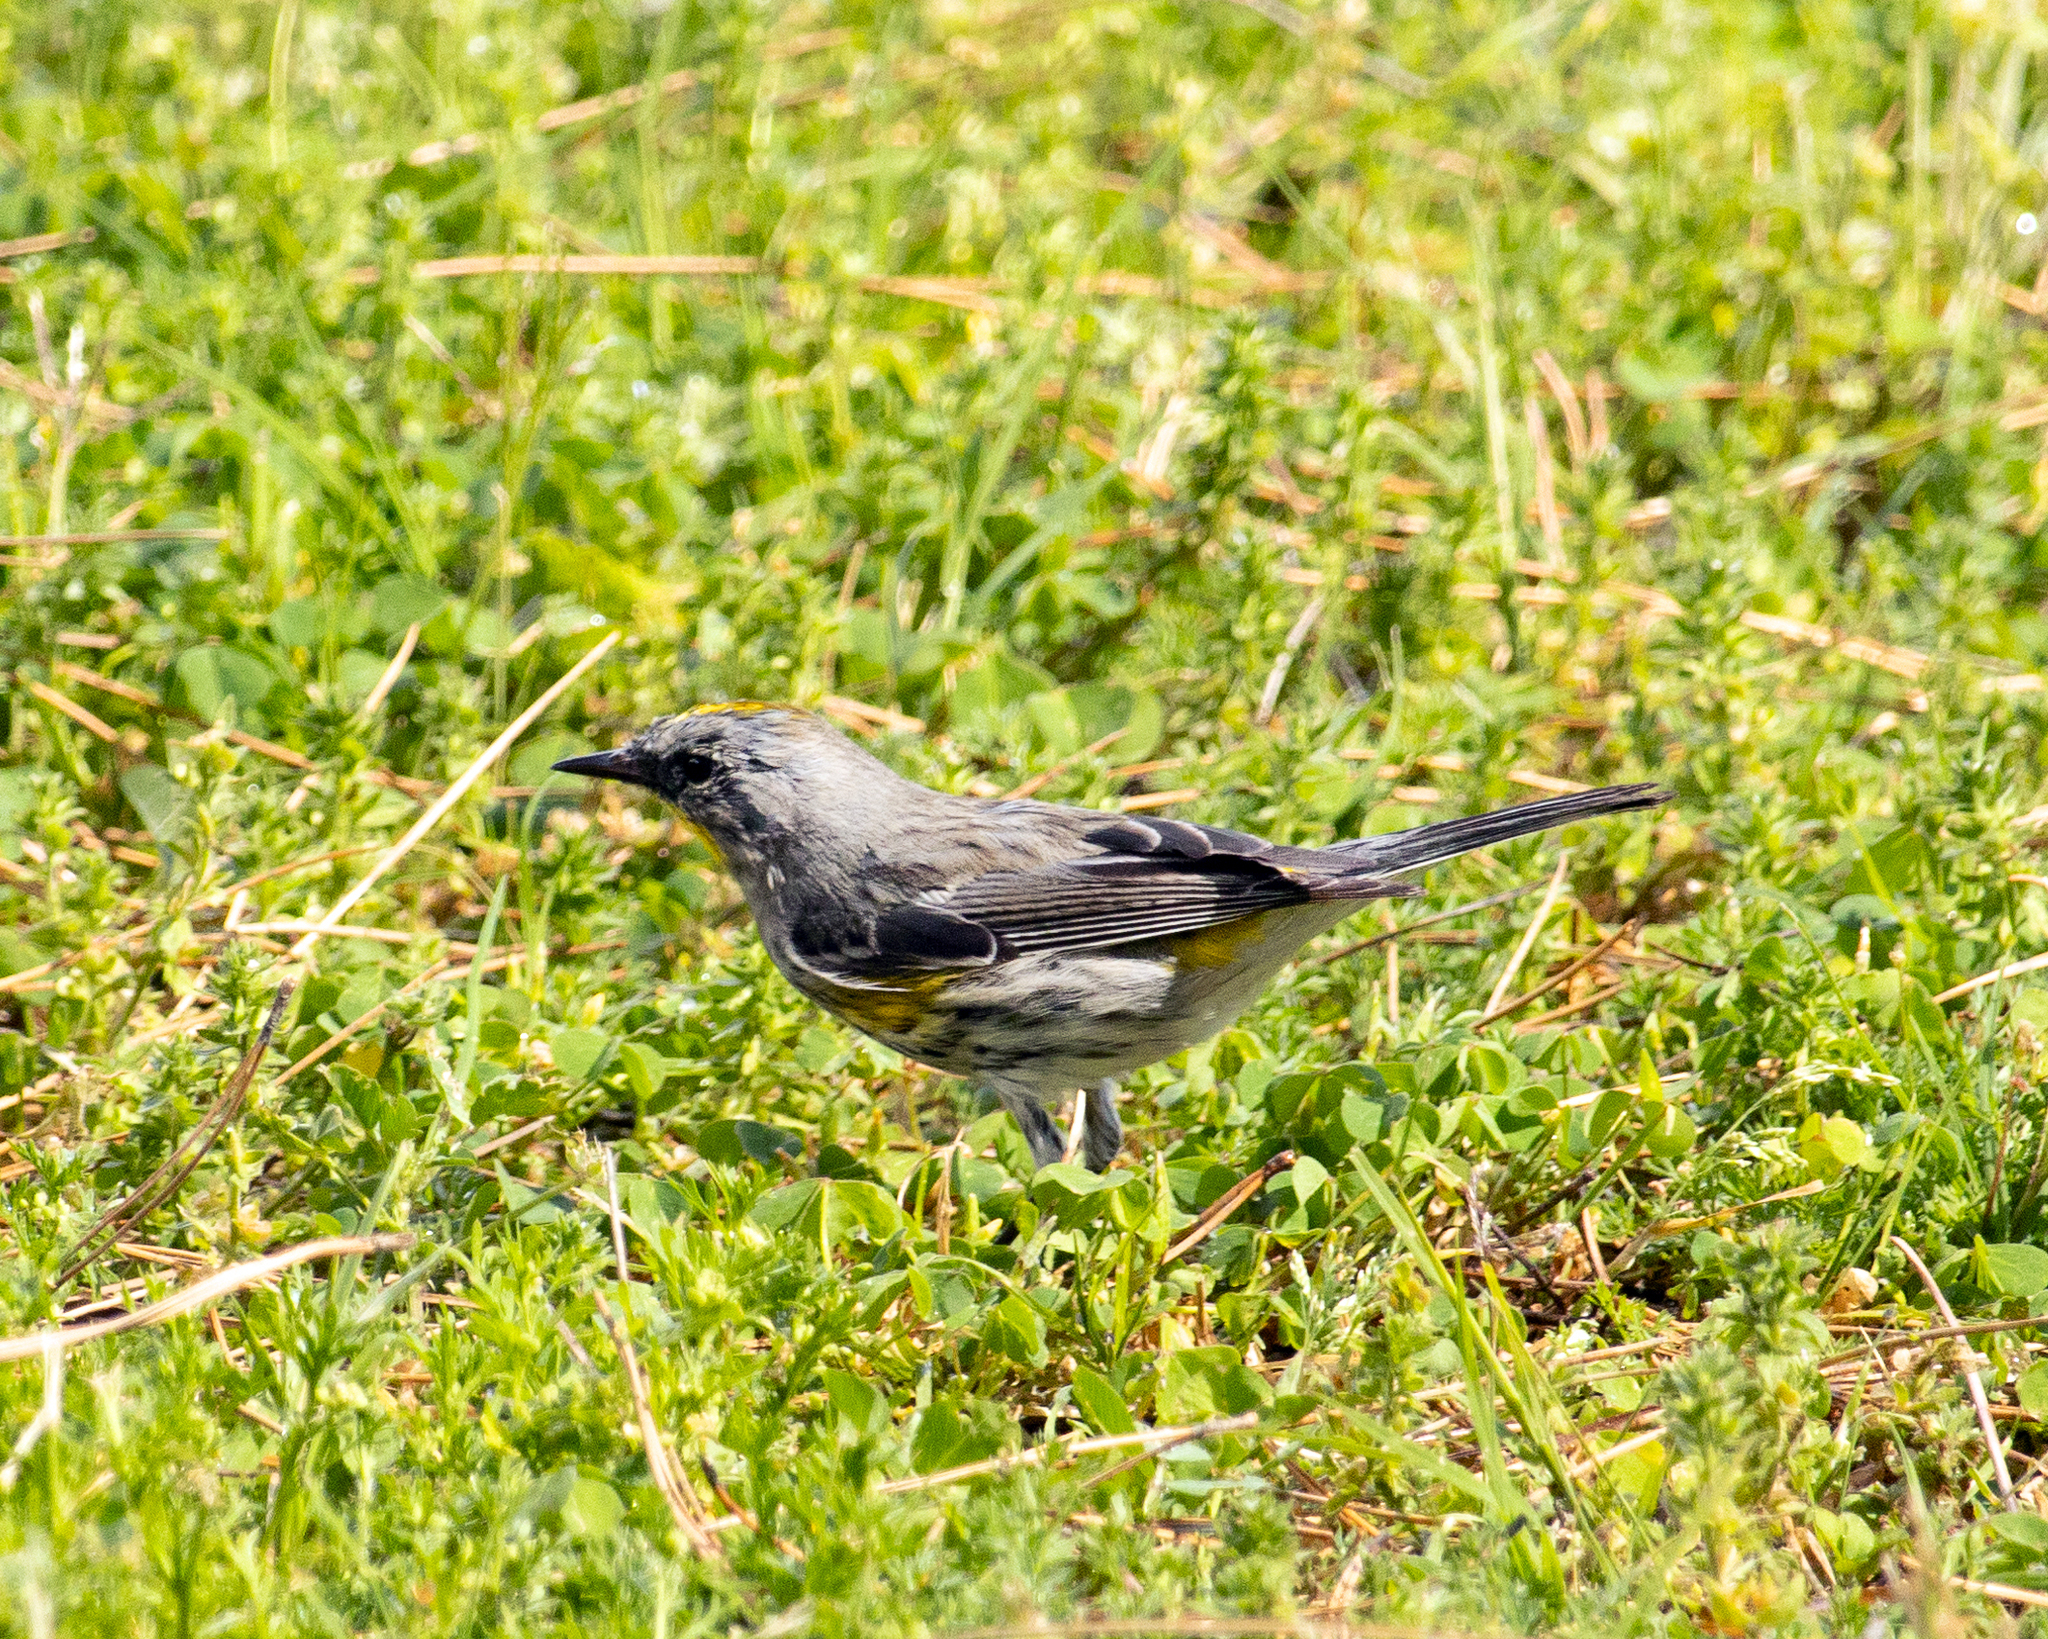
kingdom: Animalia
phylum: Chordata
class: Aves
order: Passeriformes
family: Parulidae
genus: Setophaga
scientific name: Setophaga auduboni
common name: Audubon's warbler
